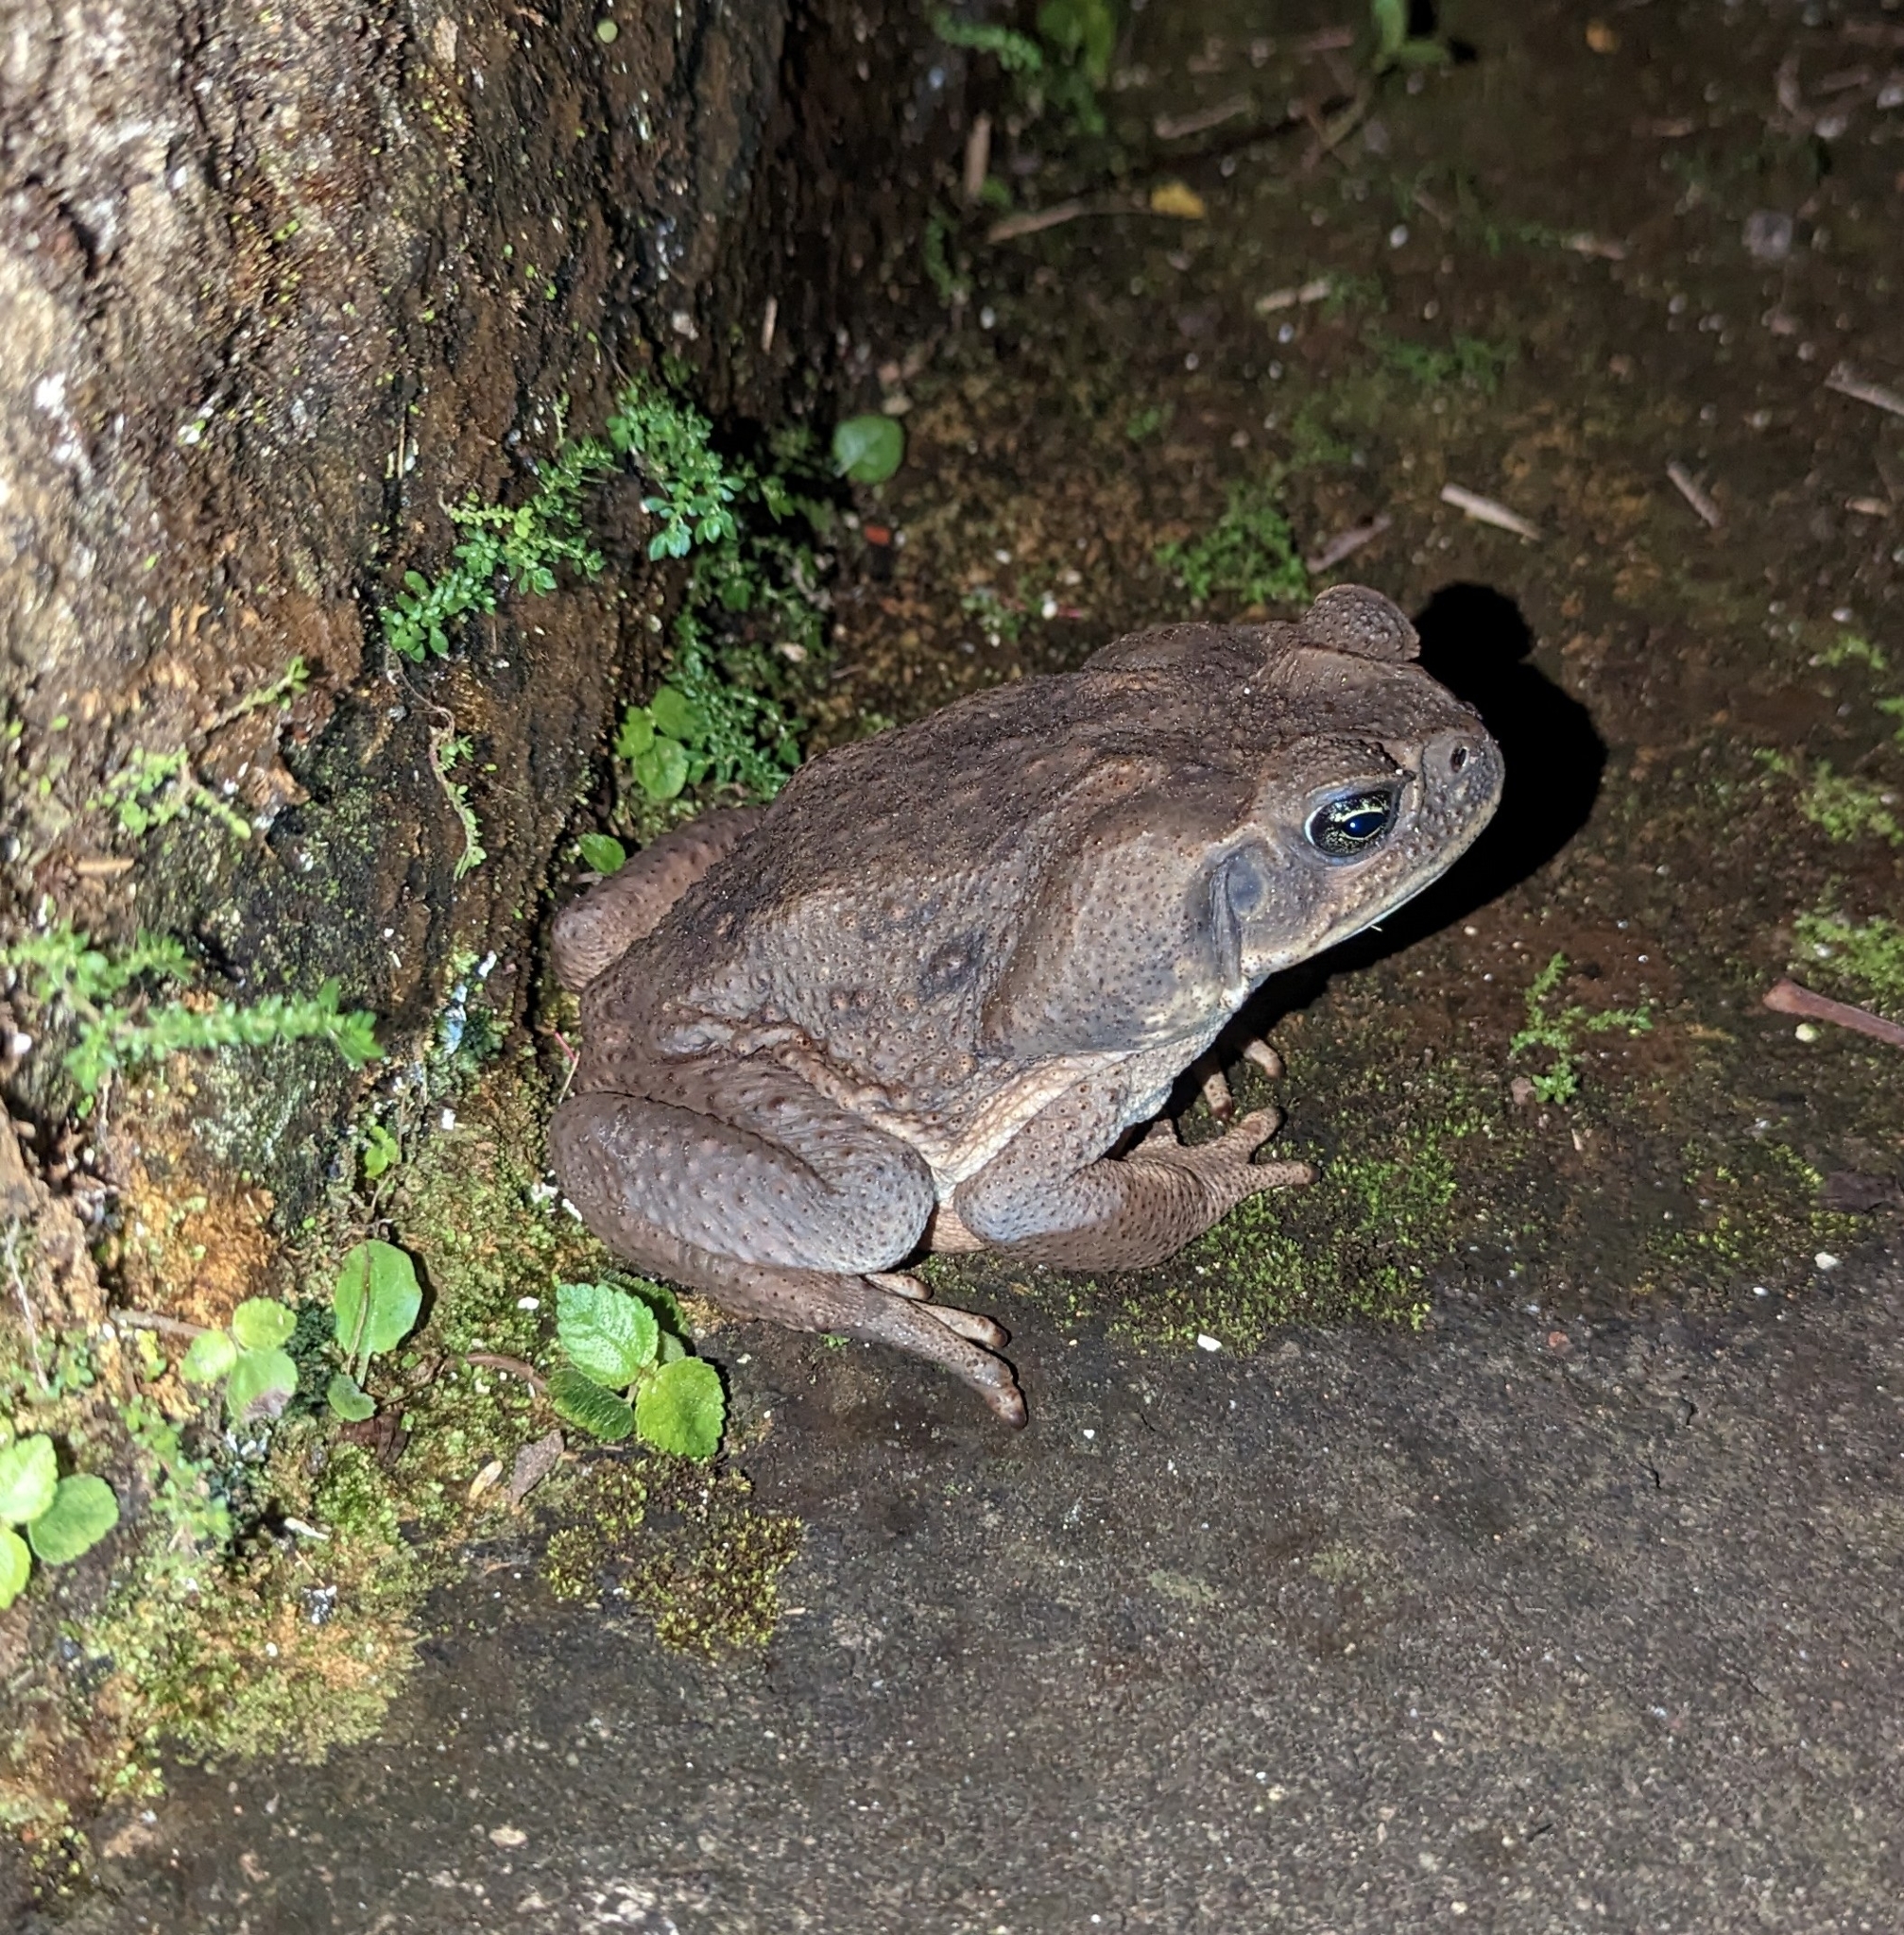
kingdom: Animalia
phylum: Chordata
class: Amphibia
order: Anura
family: Bufonidae
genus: Rhinella
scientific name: Rhinella horribilis
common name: Mesoamerican cane toad
